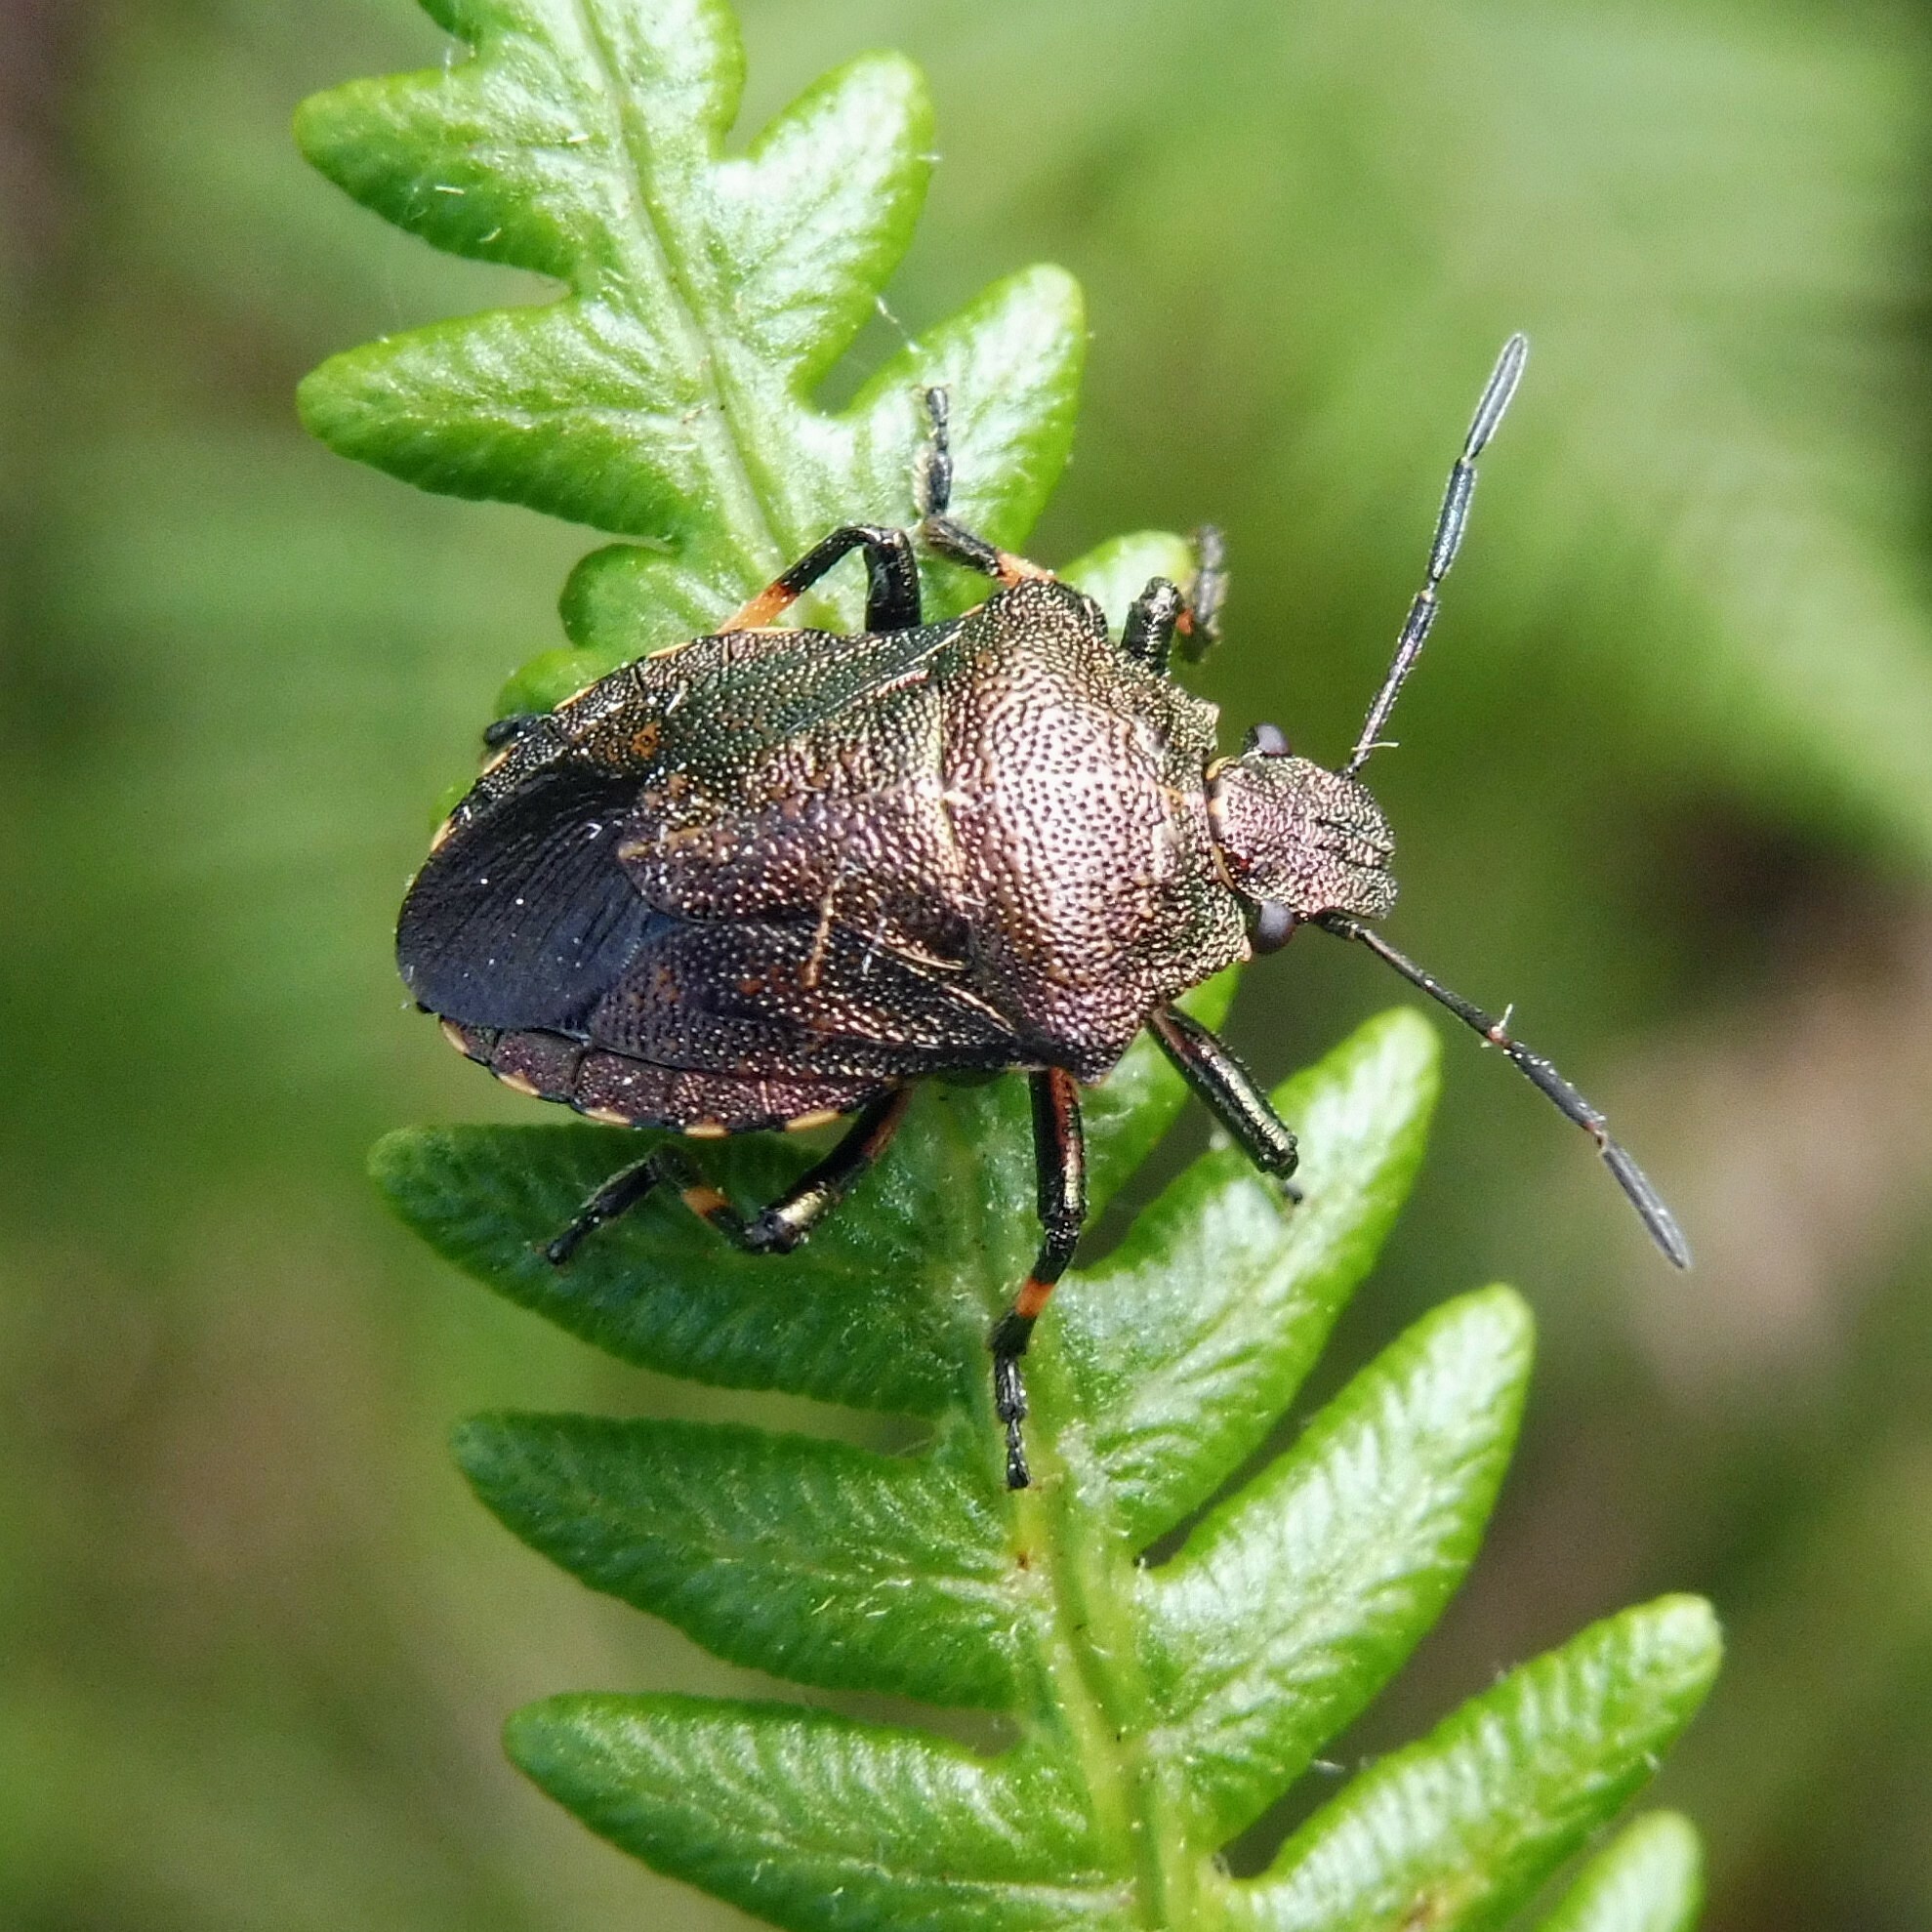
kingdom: Animalia
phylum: Arthropoda
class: Insecta
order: Hemiptera
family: Pentatomidae
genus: Rhacognathus
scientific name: Rhacognathus punctatus
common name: Heather bug
